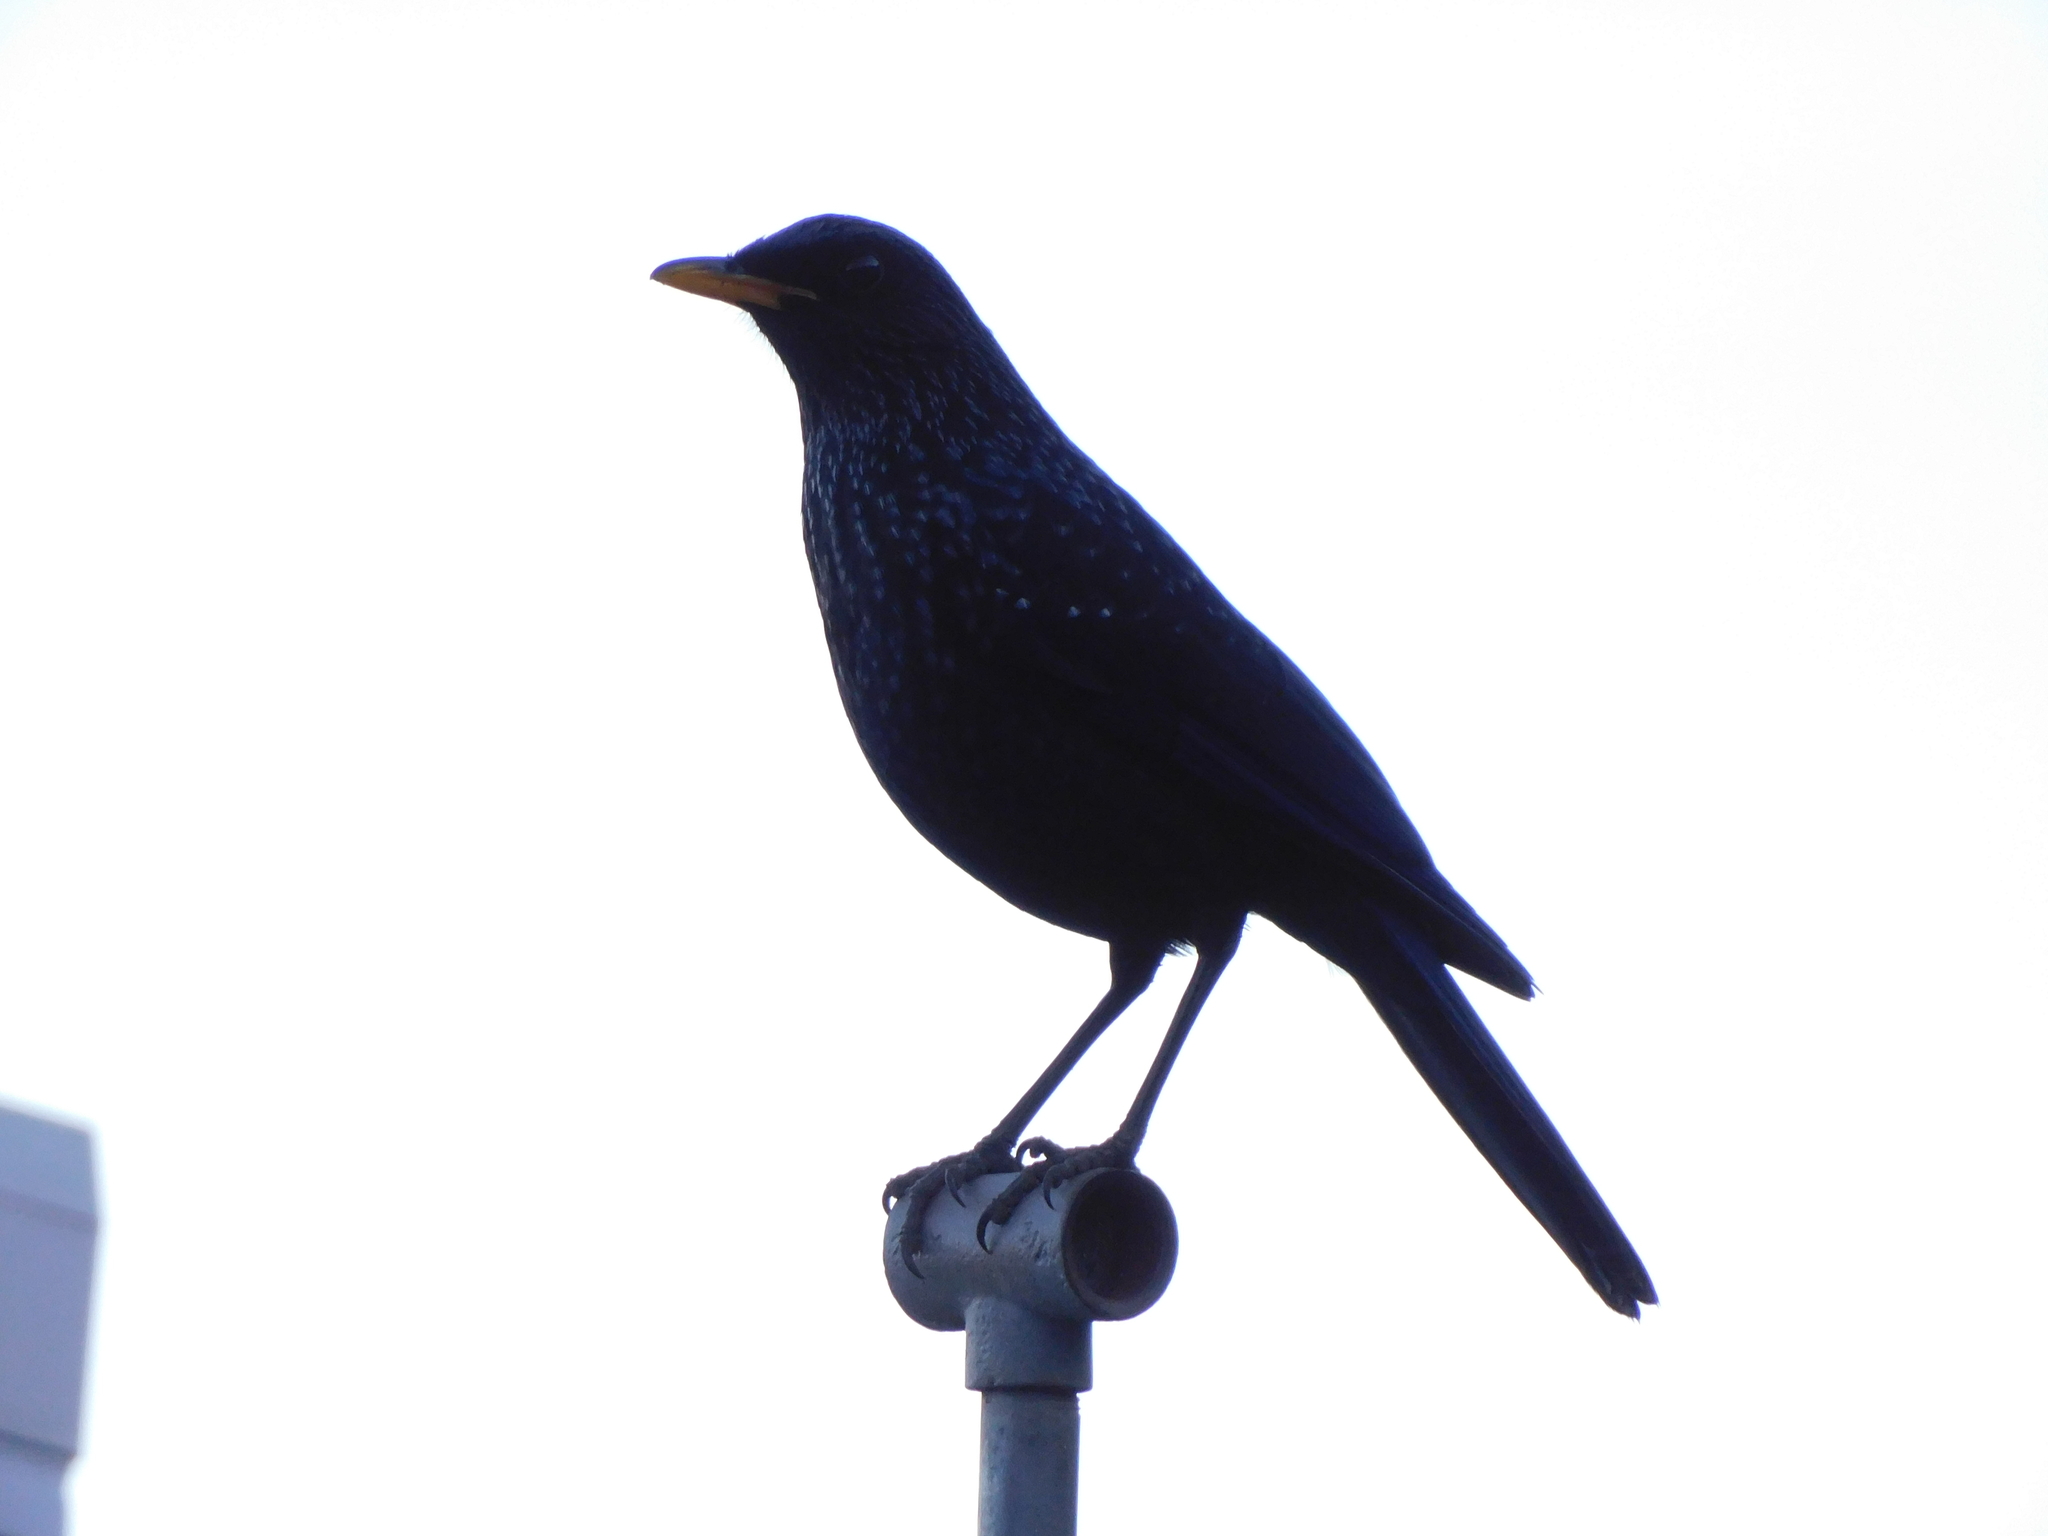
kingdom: Animalia
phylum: Chordata
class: Aves
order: Passeriformes
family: Muscicapidae
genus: Myophonus
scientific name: Myophonus caeruleus
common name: Blue whistling-thrush
